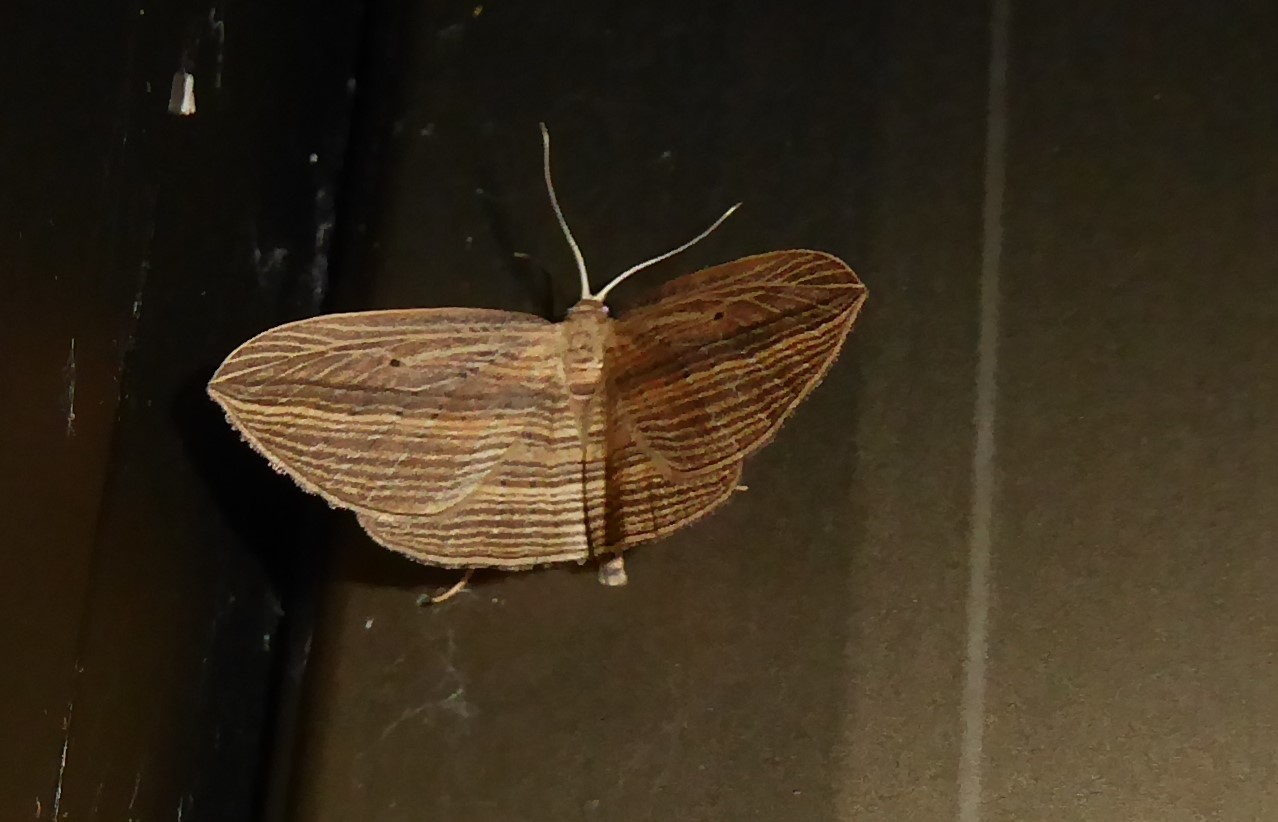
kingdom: Animalia
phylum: Arthropoda
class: Insecta
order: Lepidoptera
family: Geometridae
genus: Epiphryne
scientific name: Epiphryne verriculata
